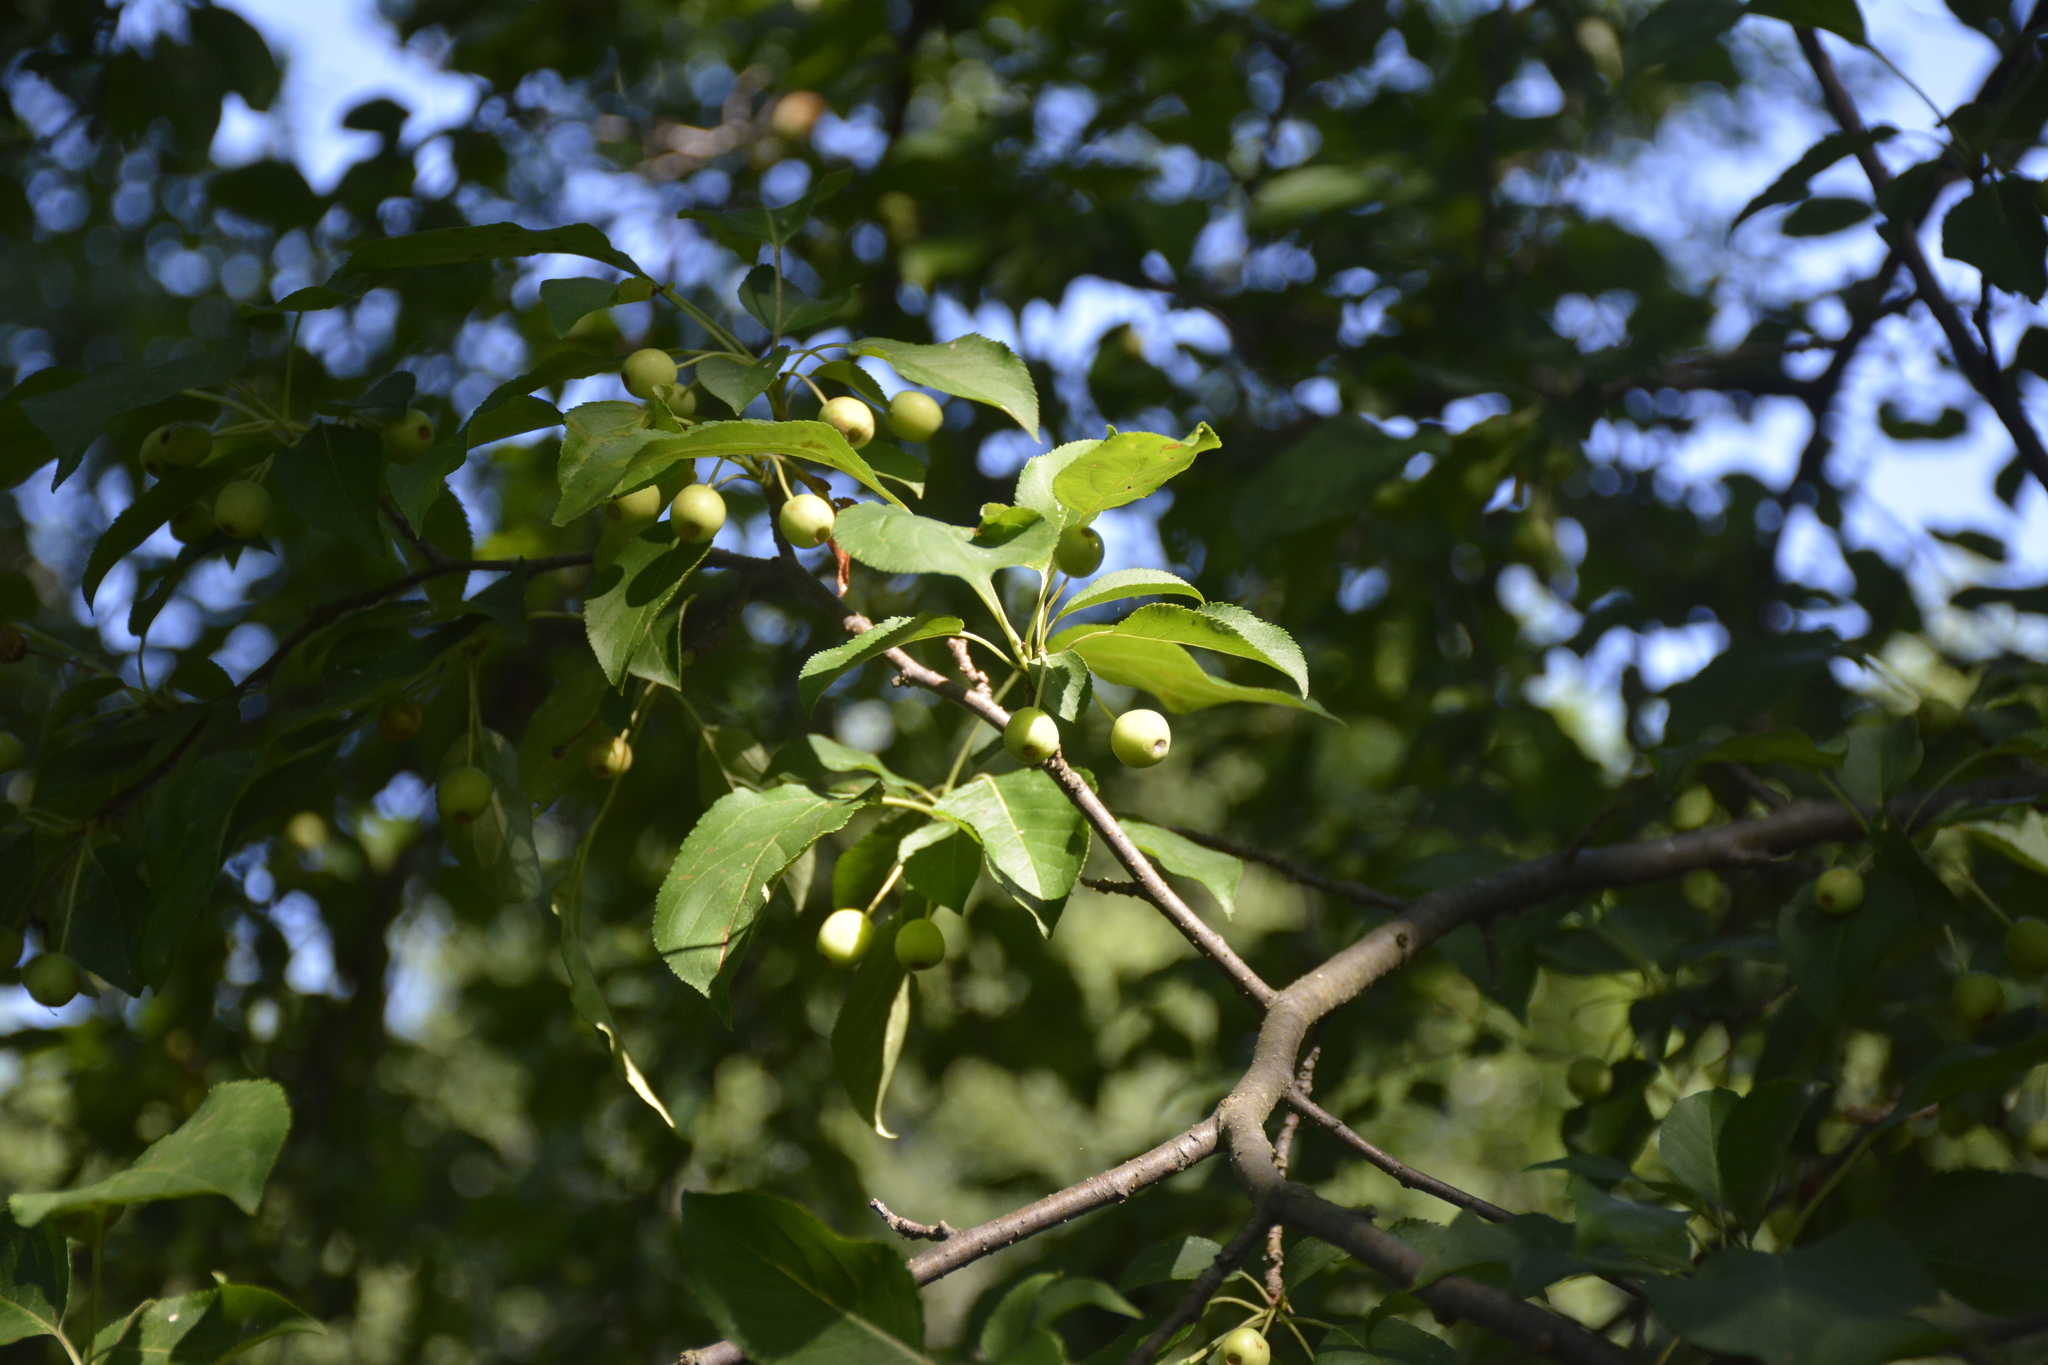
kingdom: Plantae
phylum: Tracheophyta
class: Magnoliopsida
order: Rosales
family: Rosaceae
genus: Malus
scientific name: Malus baccata
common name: Siberian crab
